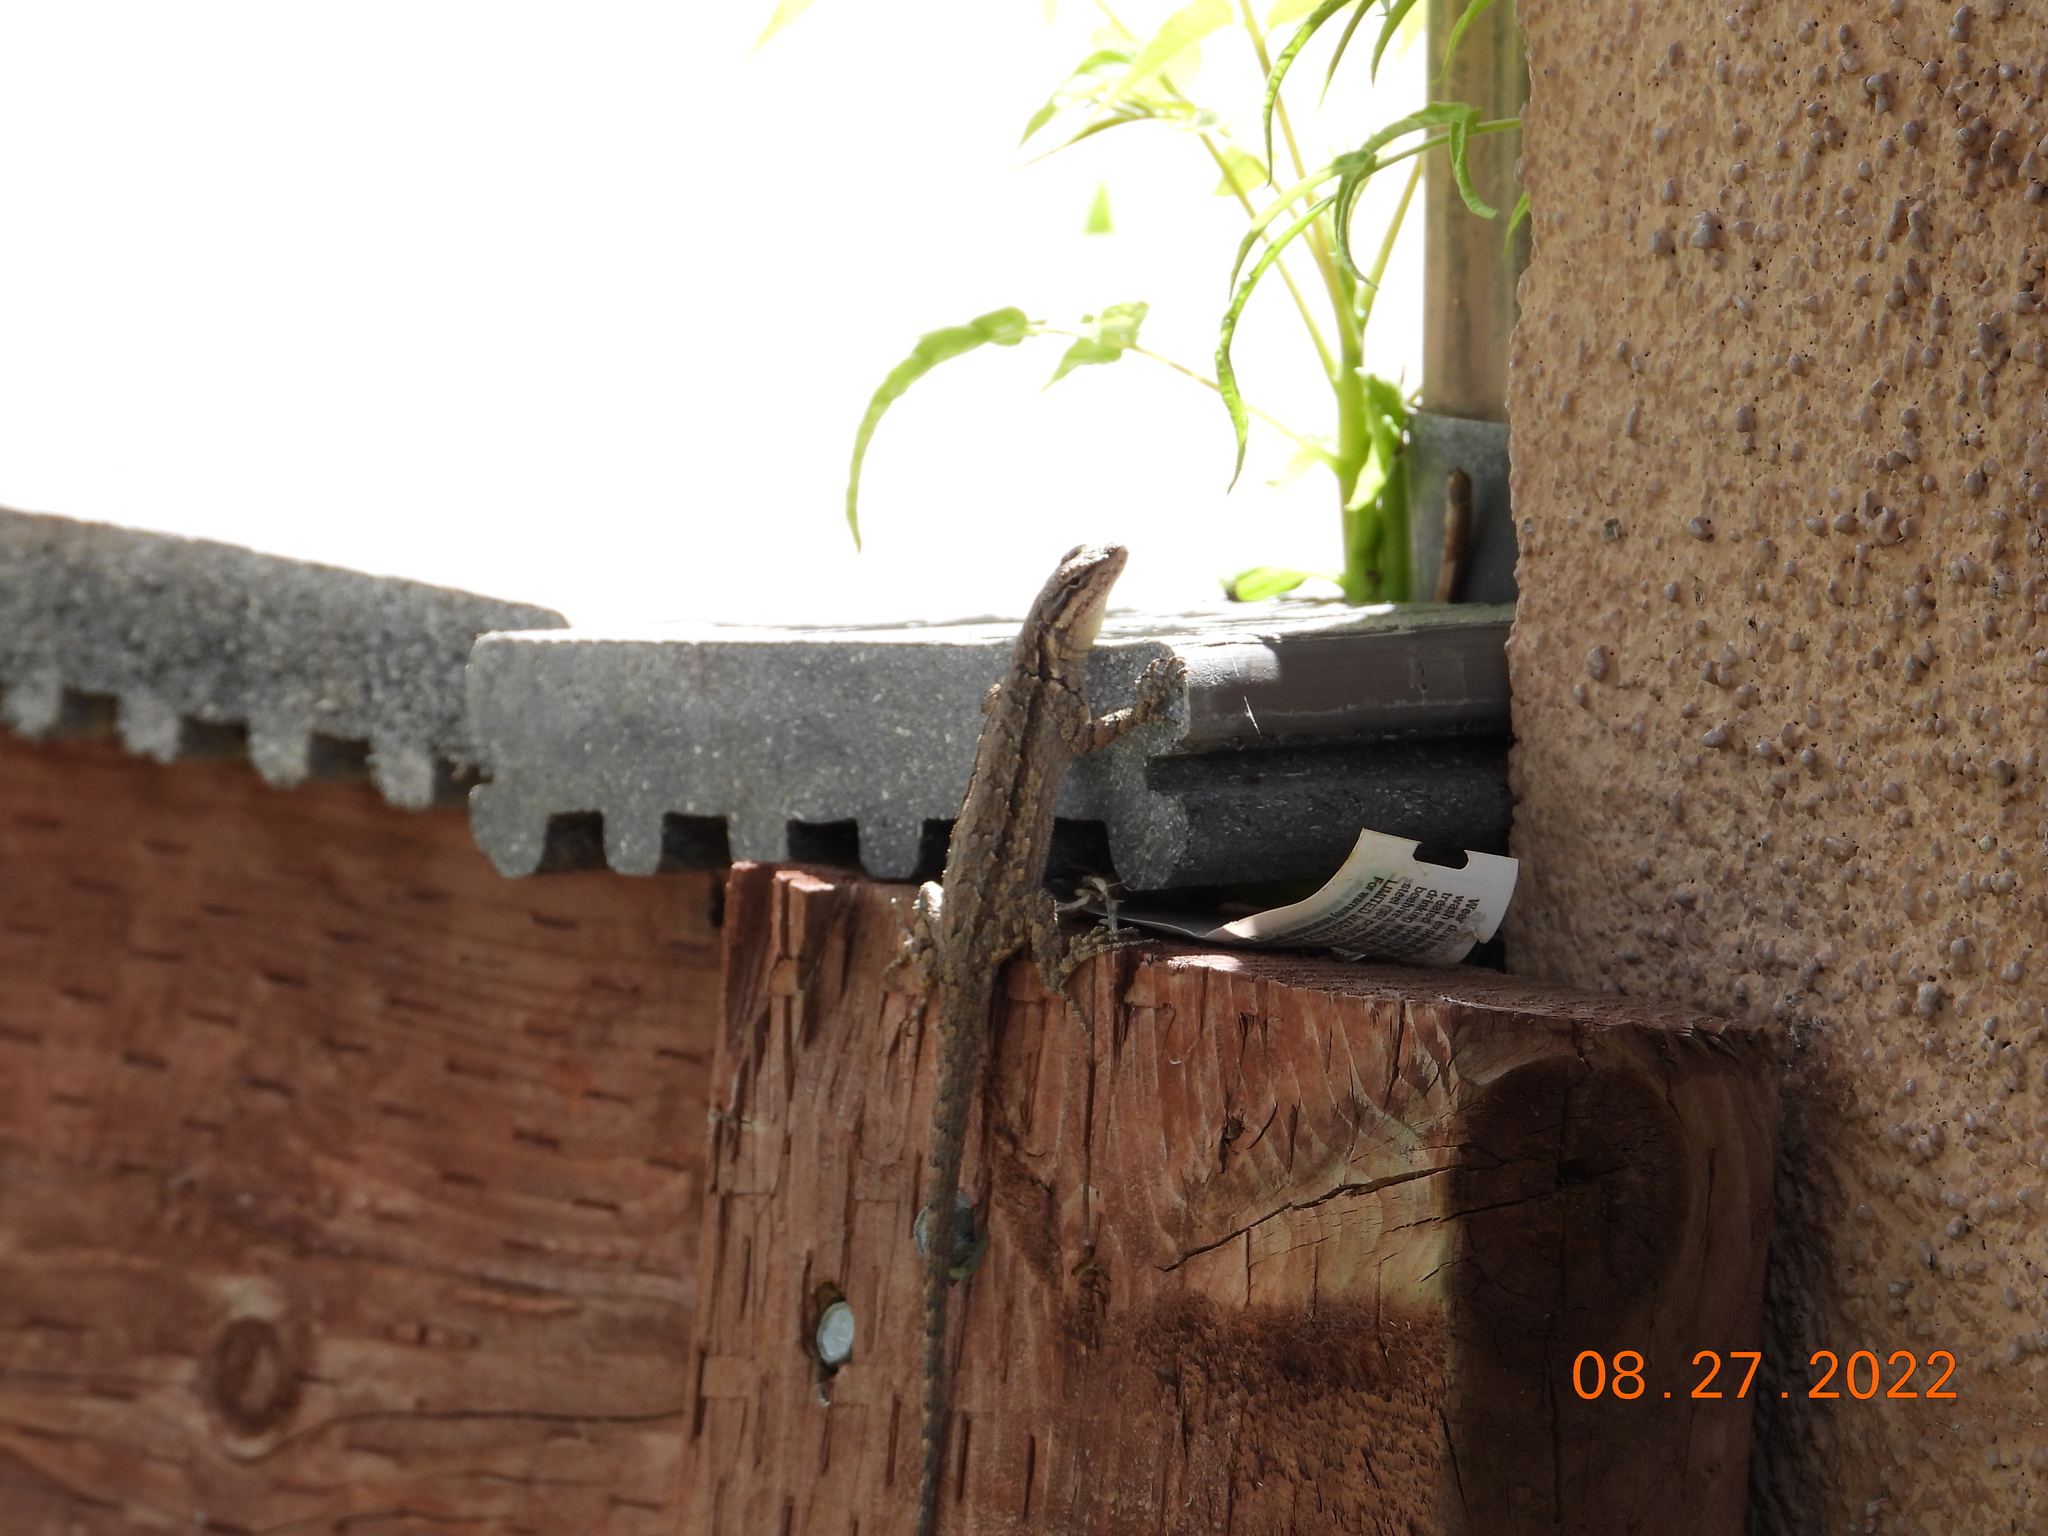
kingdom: Animalia
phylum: Chordata
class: Squamata
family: Phrynosomatidae
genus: Urosaurus
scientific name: Urosaurus ornatus
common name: Ornate tree lizard
